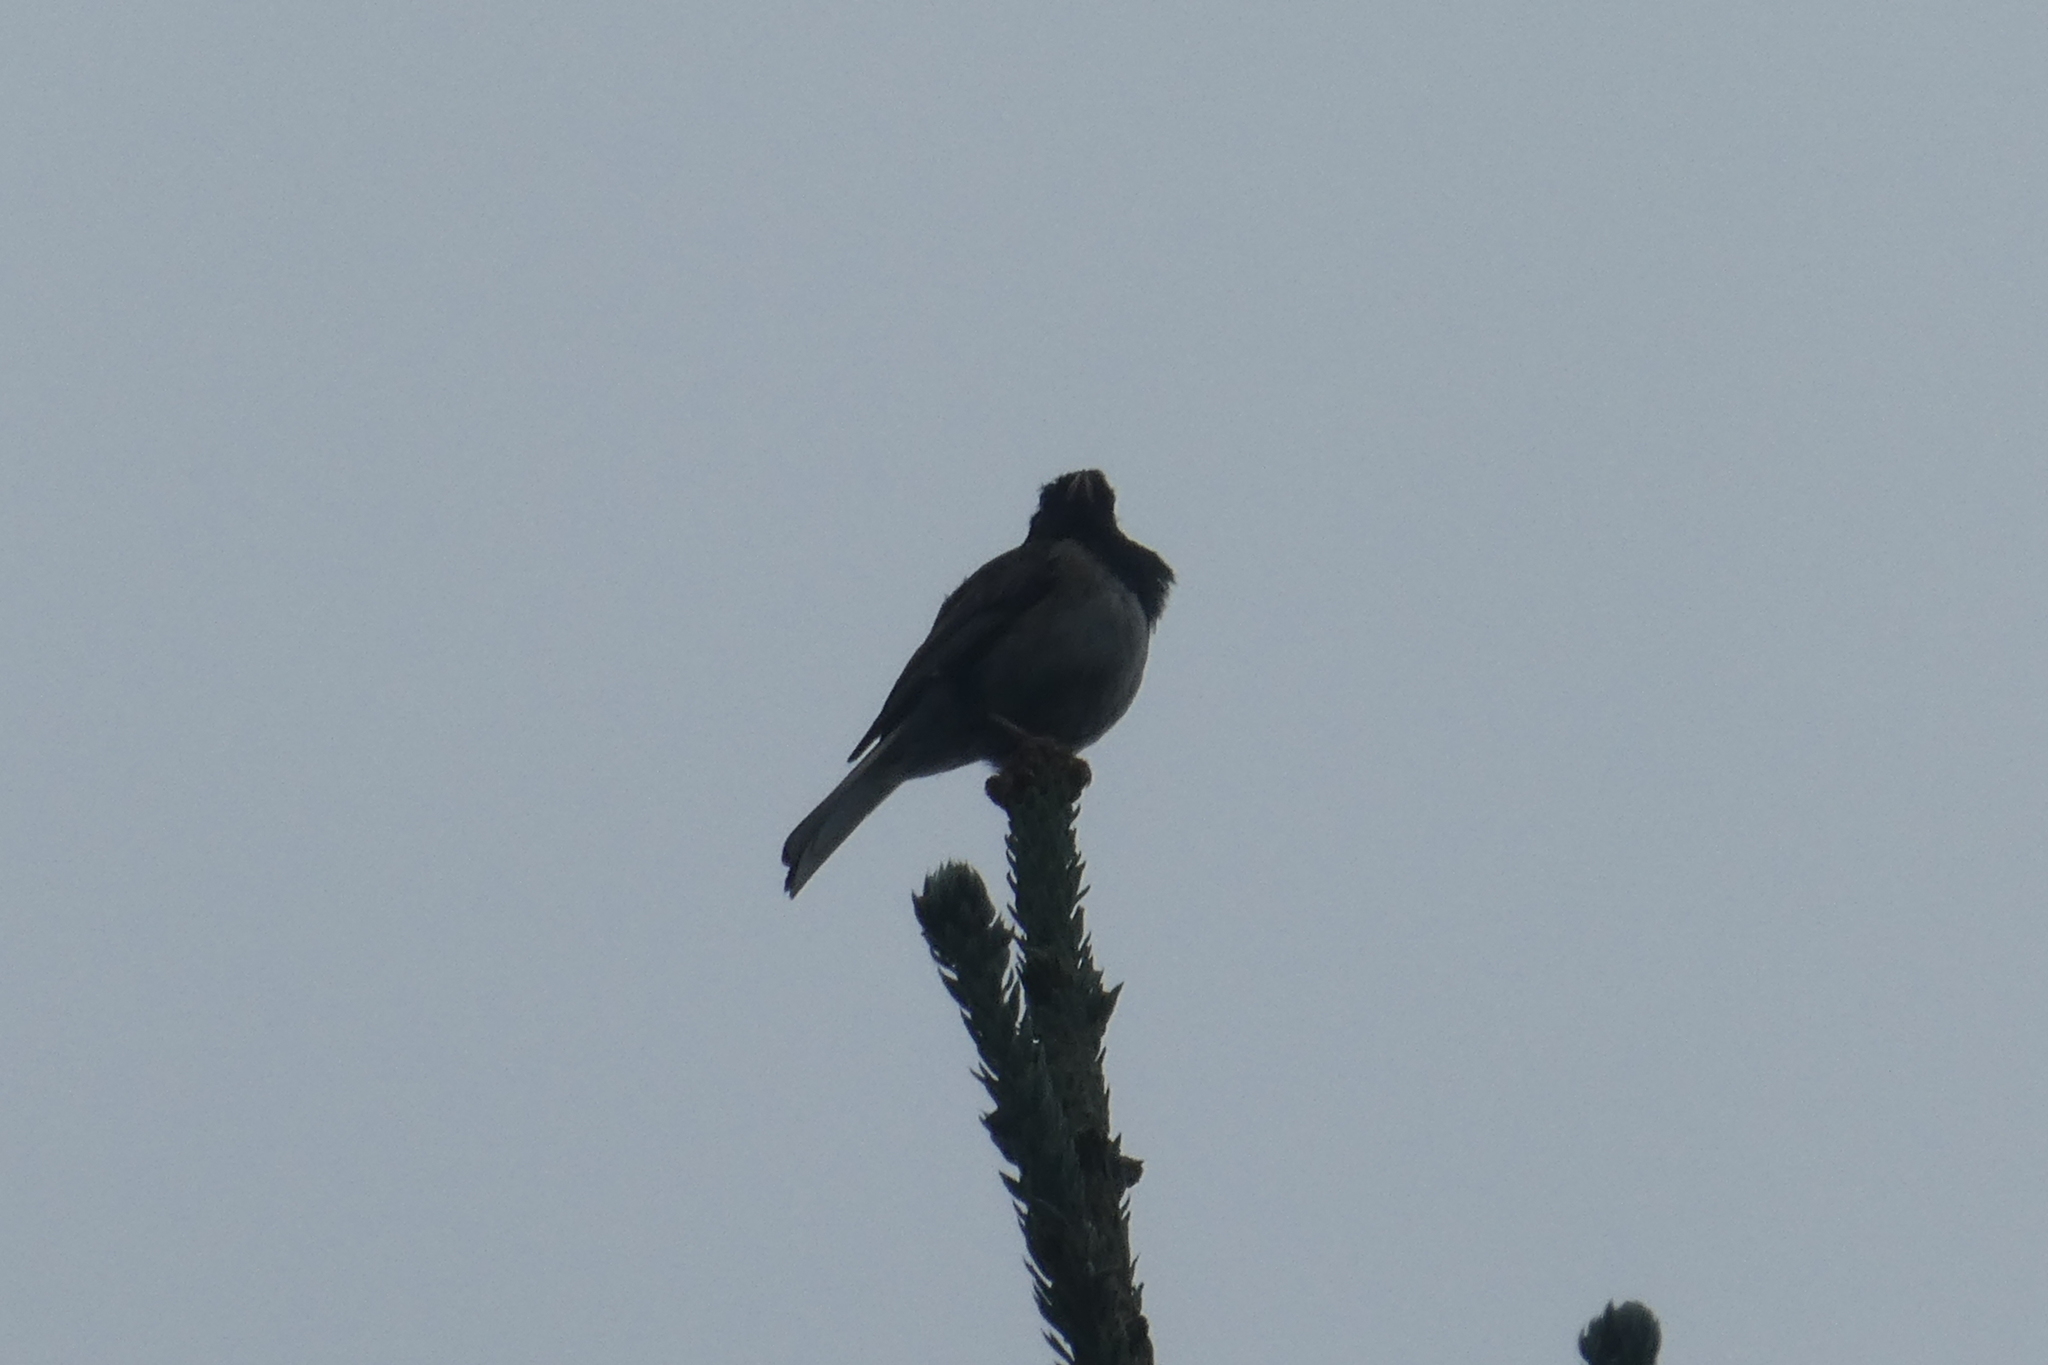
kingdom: Animalia
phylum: Chordata
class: Aves
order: Passeriformes
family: Passerellidae
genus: Junco
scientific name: Junco hyemalis
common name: Dark-eyed junco
